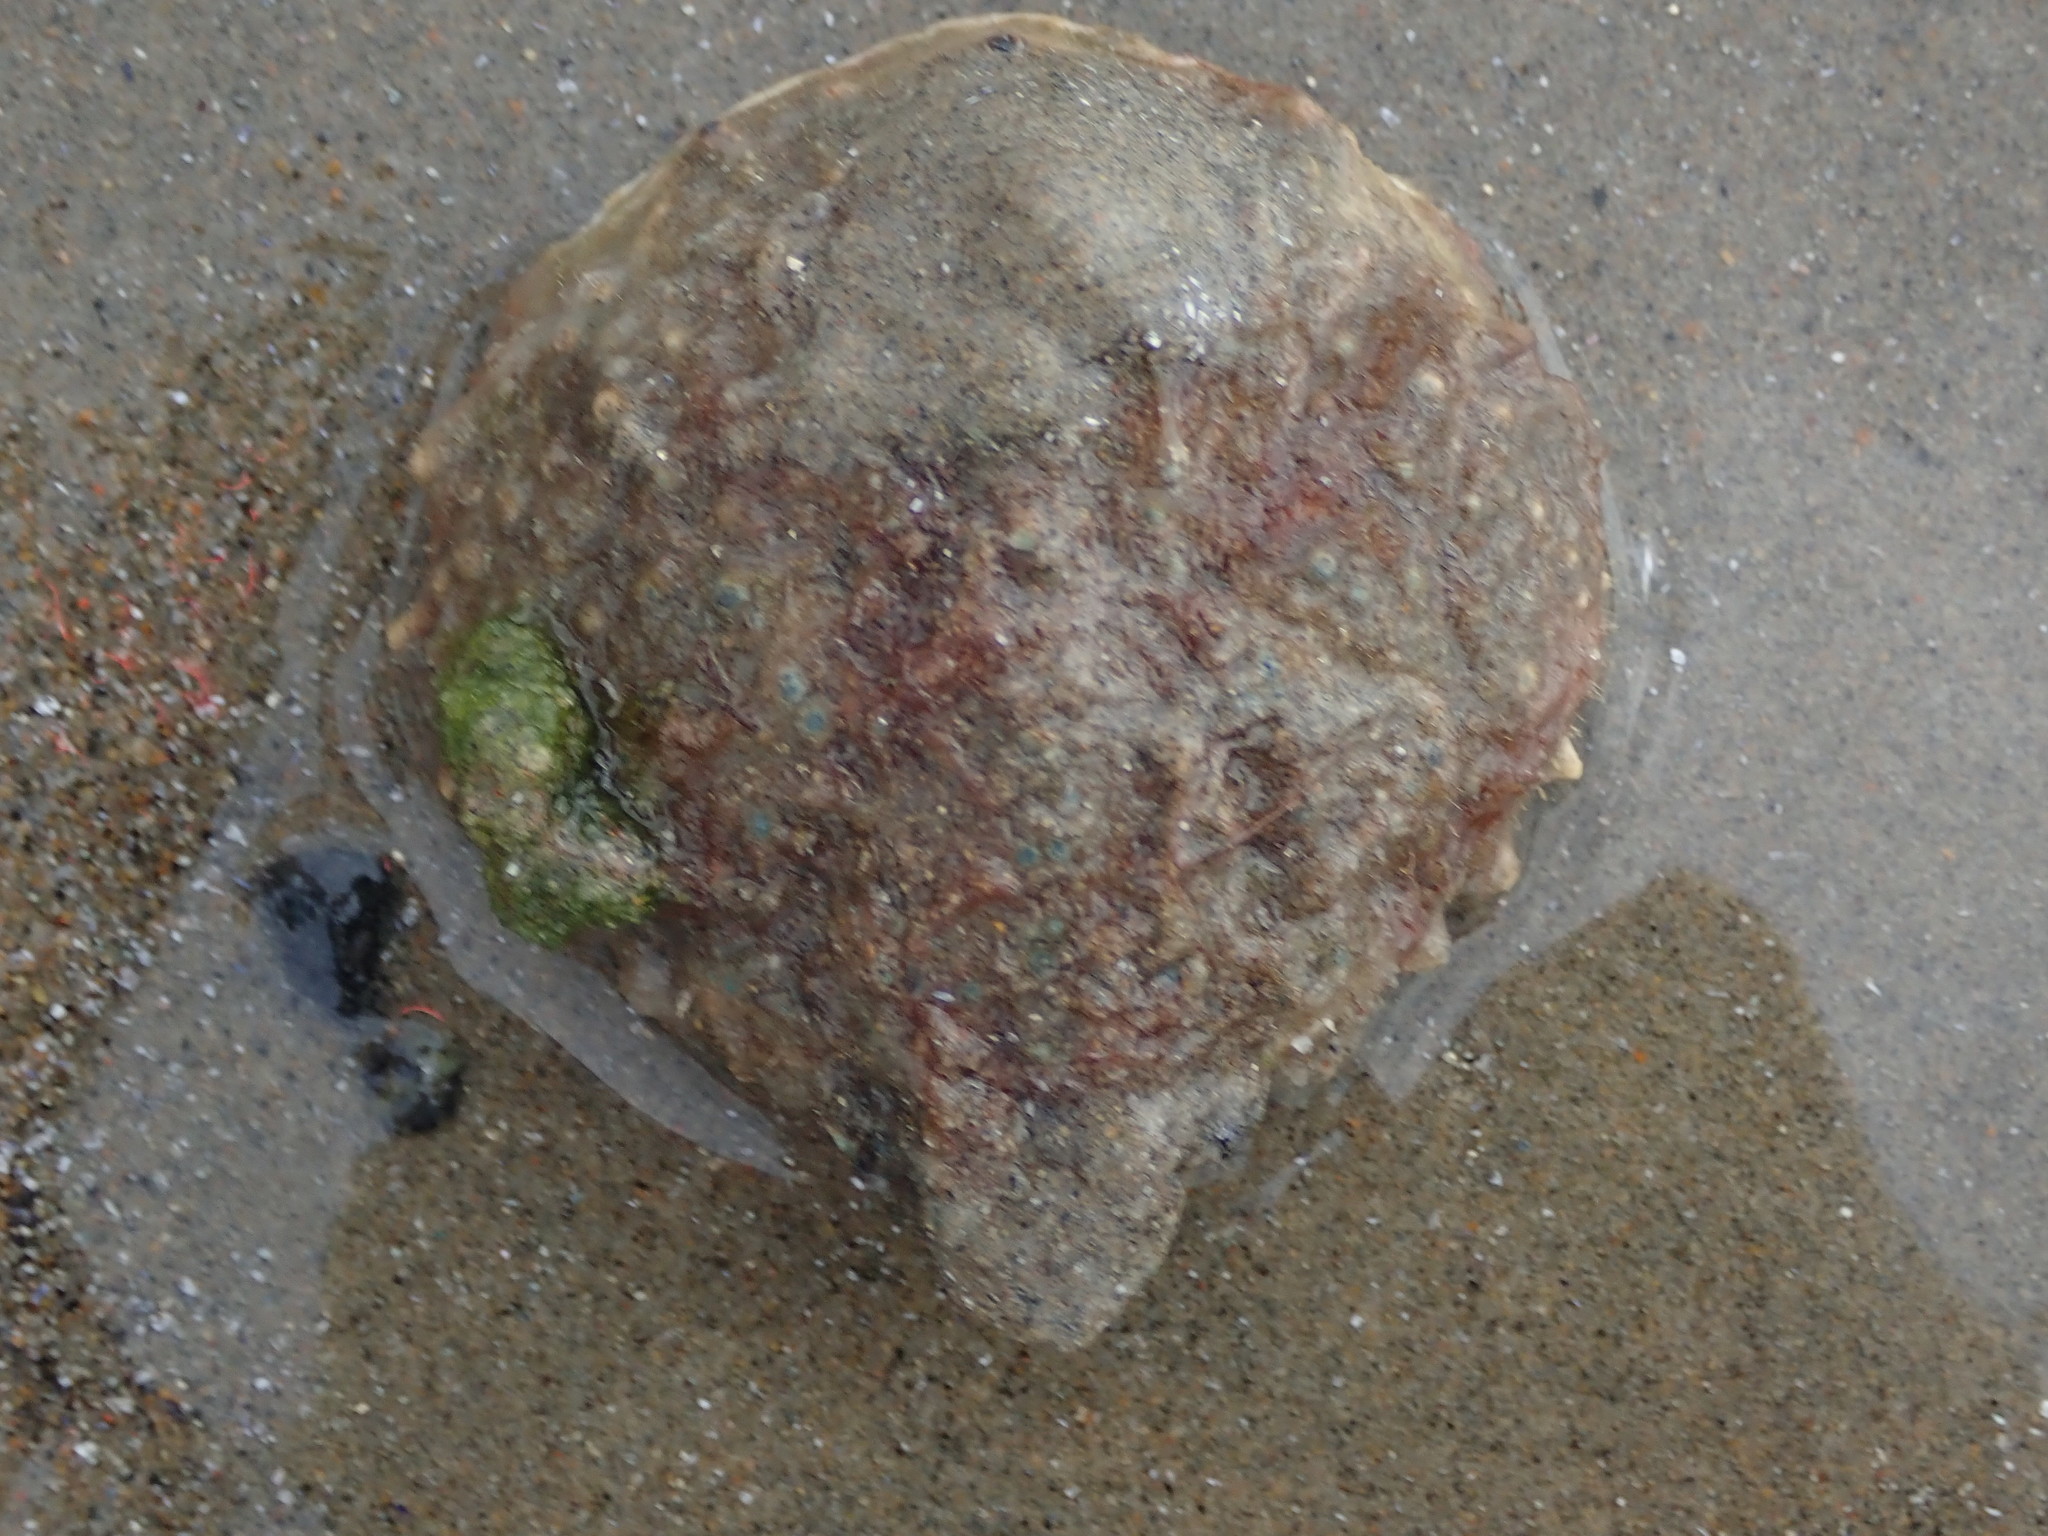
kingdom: Animalia
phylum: Arthropoda
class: Malacostraca
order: Decapoda
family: Epialtidae
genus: Libinia
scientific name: Libinia emarginata
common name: Common spider crab
